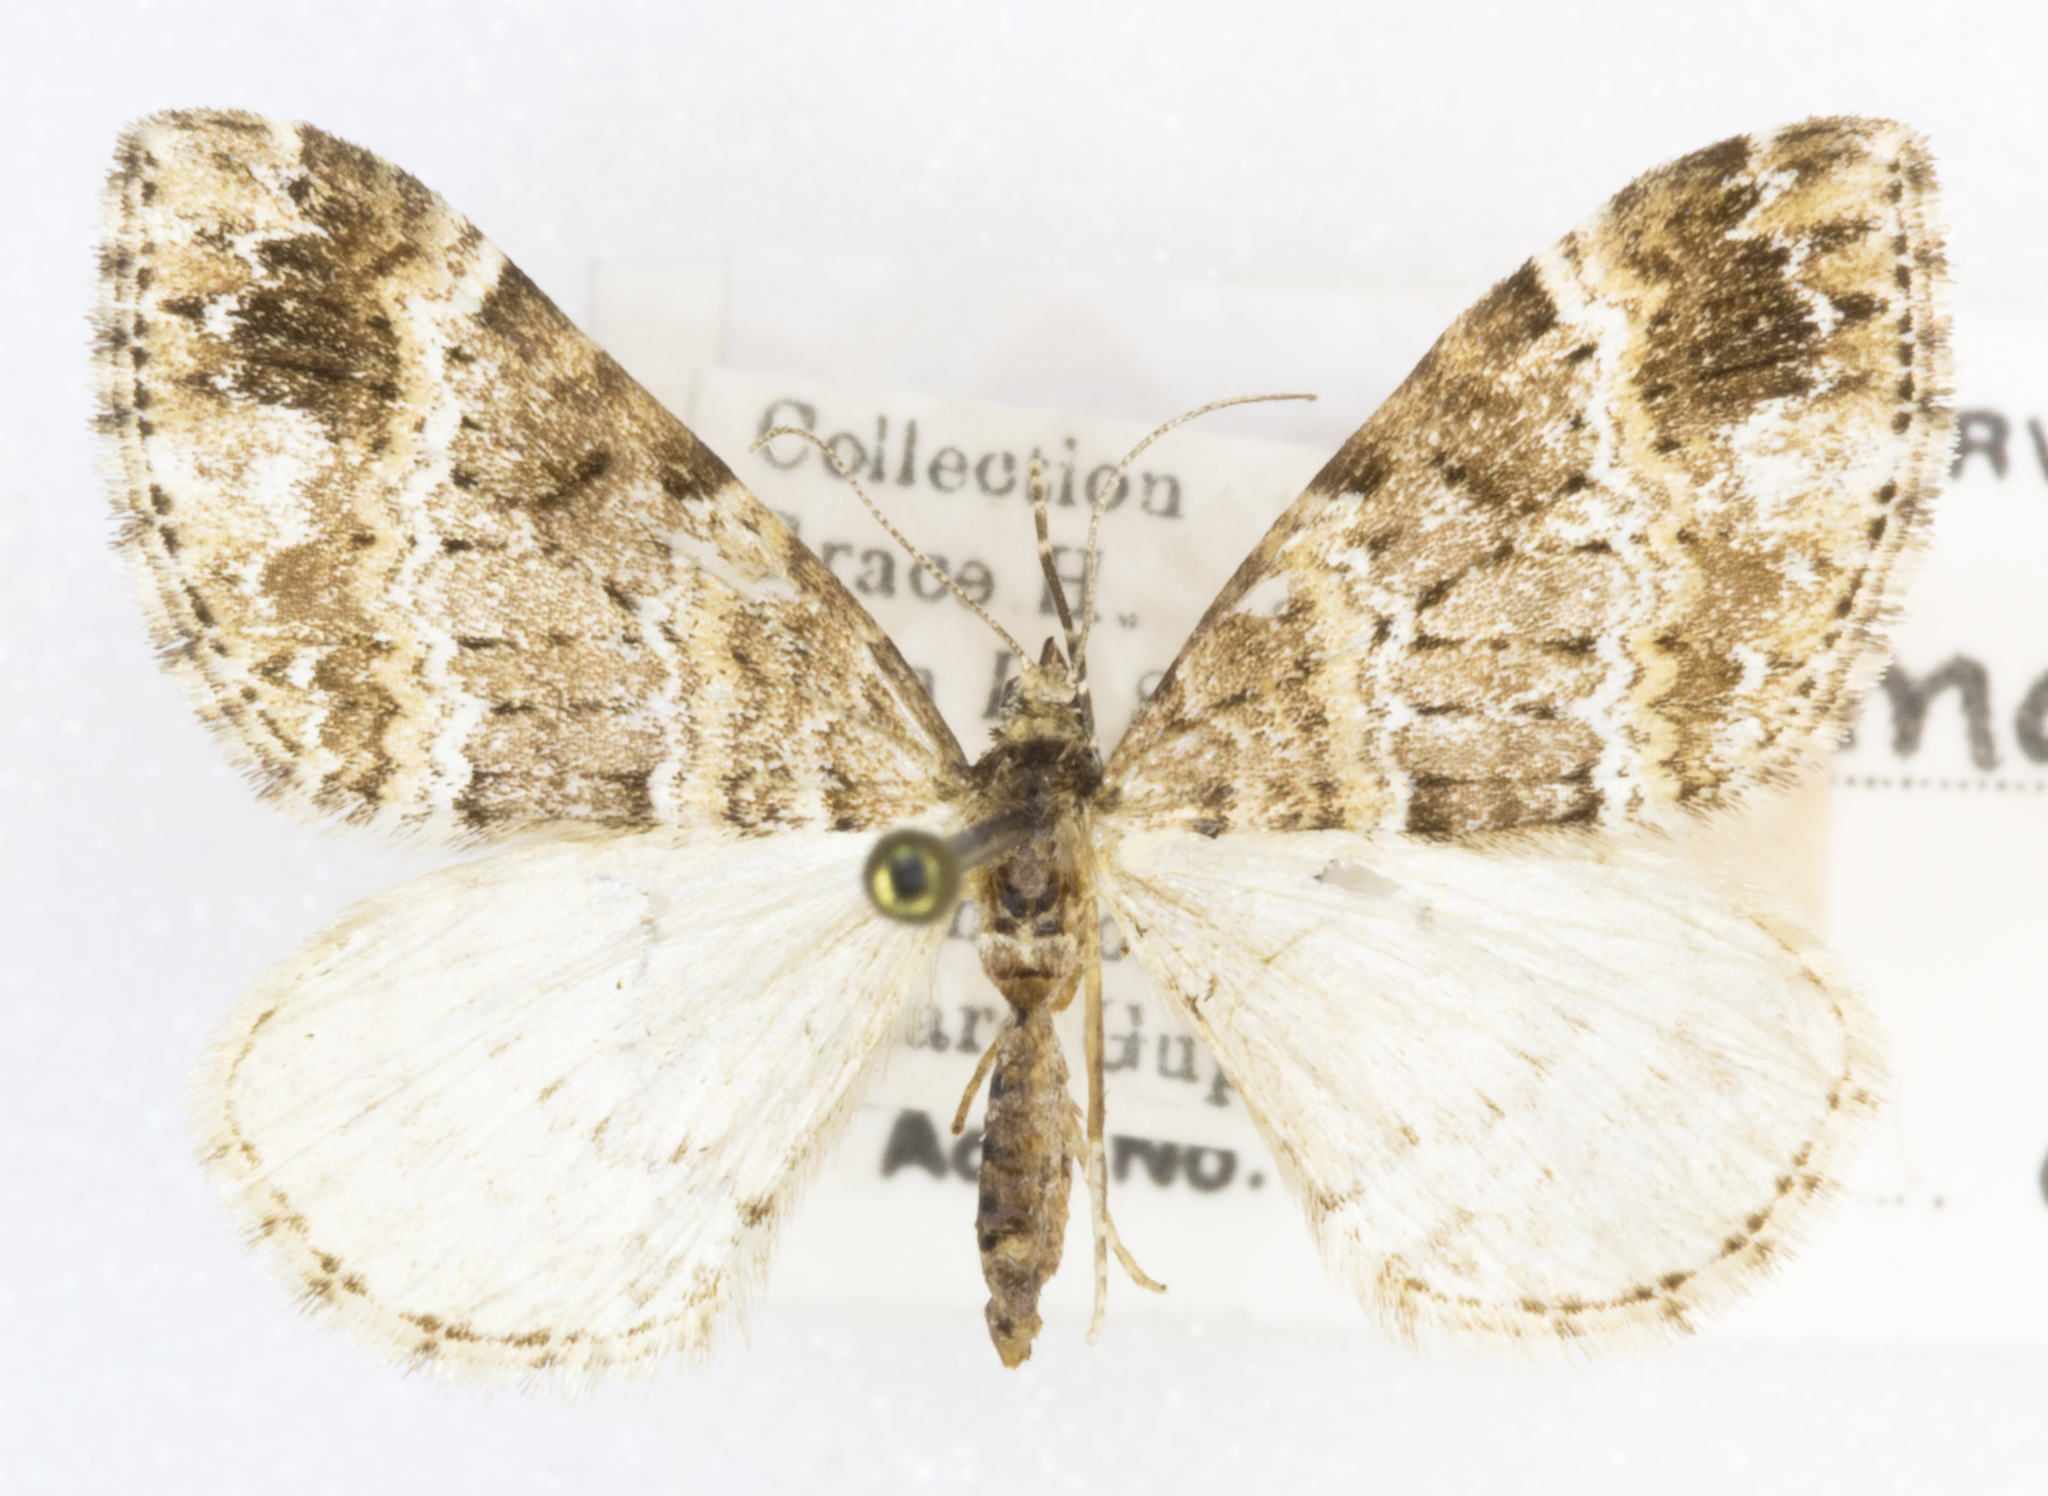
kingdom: Animalia
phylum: Arthropoda
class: Insecta
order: Lepidoptera
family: Geometridae
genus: Martania
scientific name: Martania
